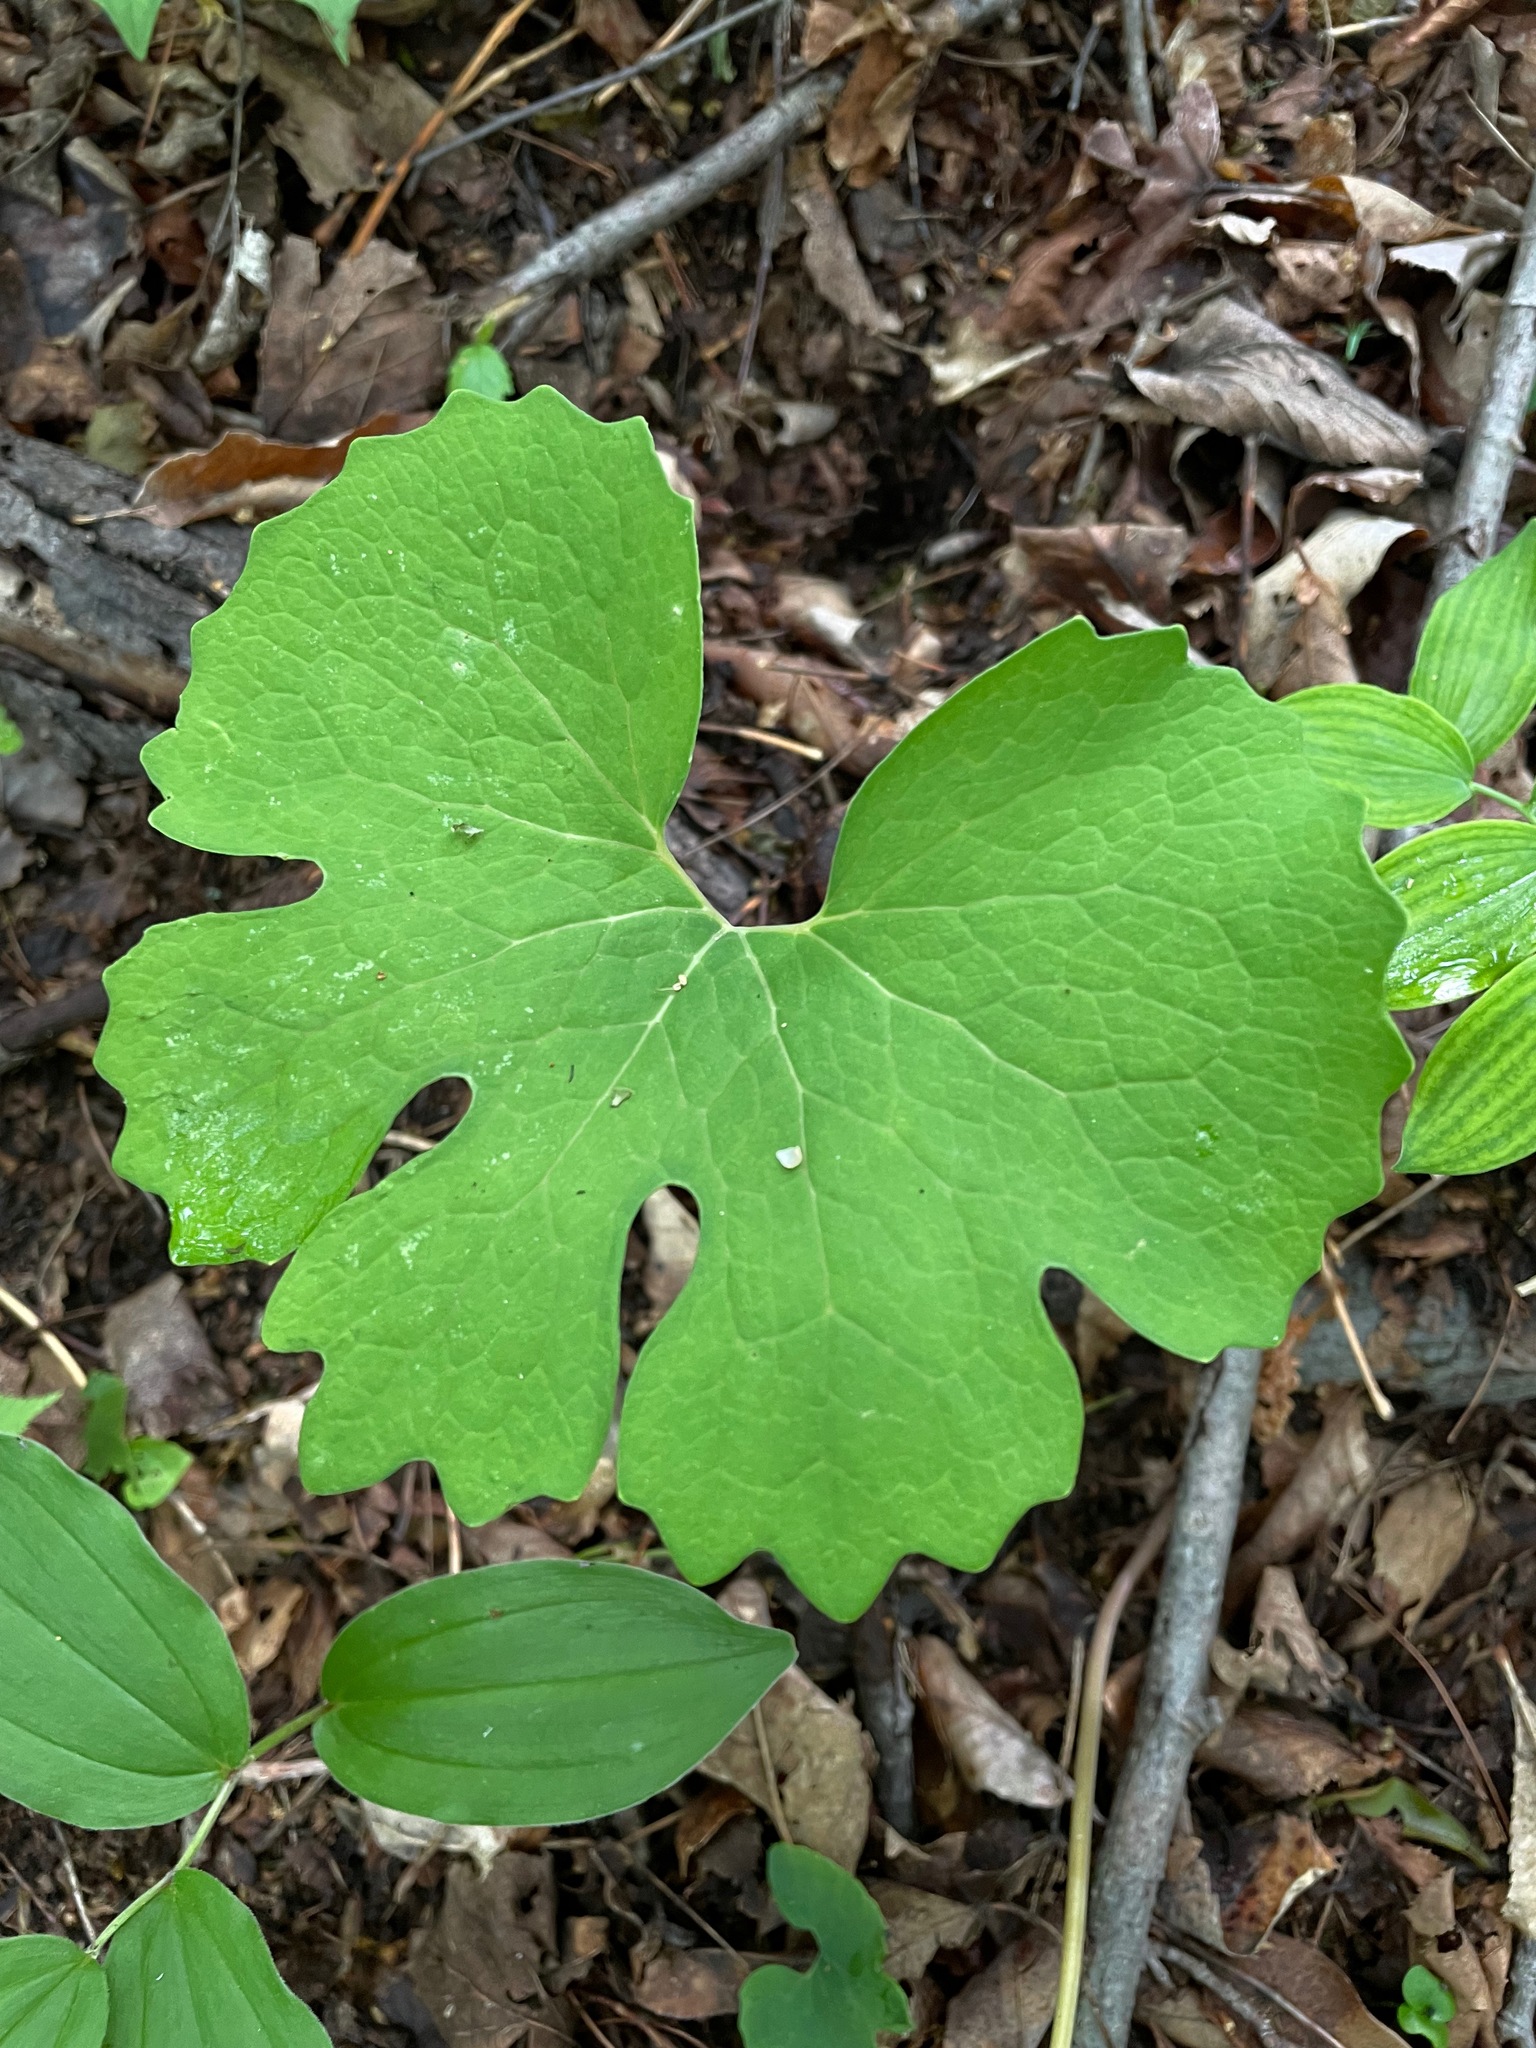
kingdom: Plantae
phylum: Tracheophyta
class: Magnoliopsida
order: Ranunculales
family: Papaveraceae
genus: Sanguinaria
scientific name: Sanguinaria canadensis
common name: Bloodroot
